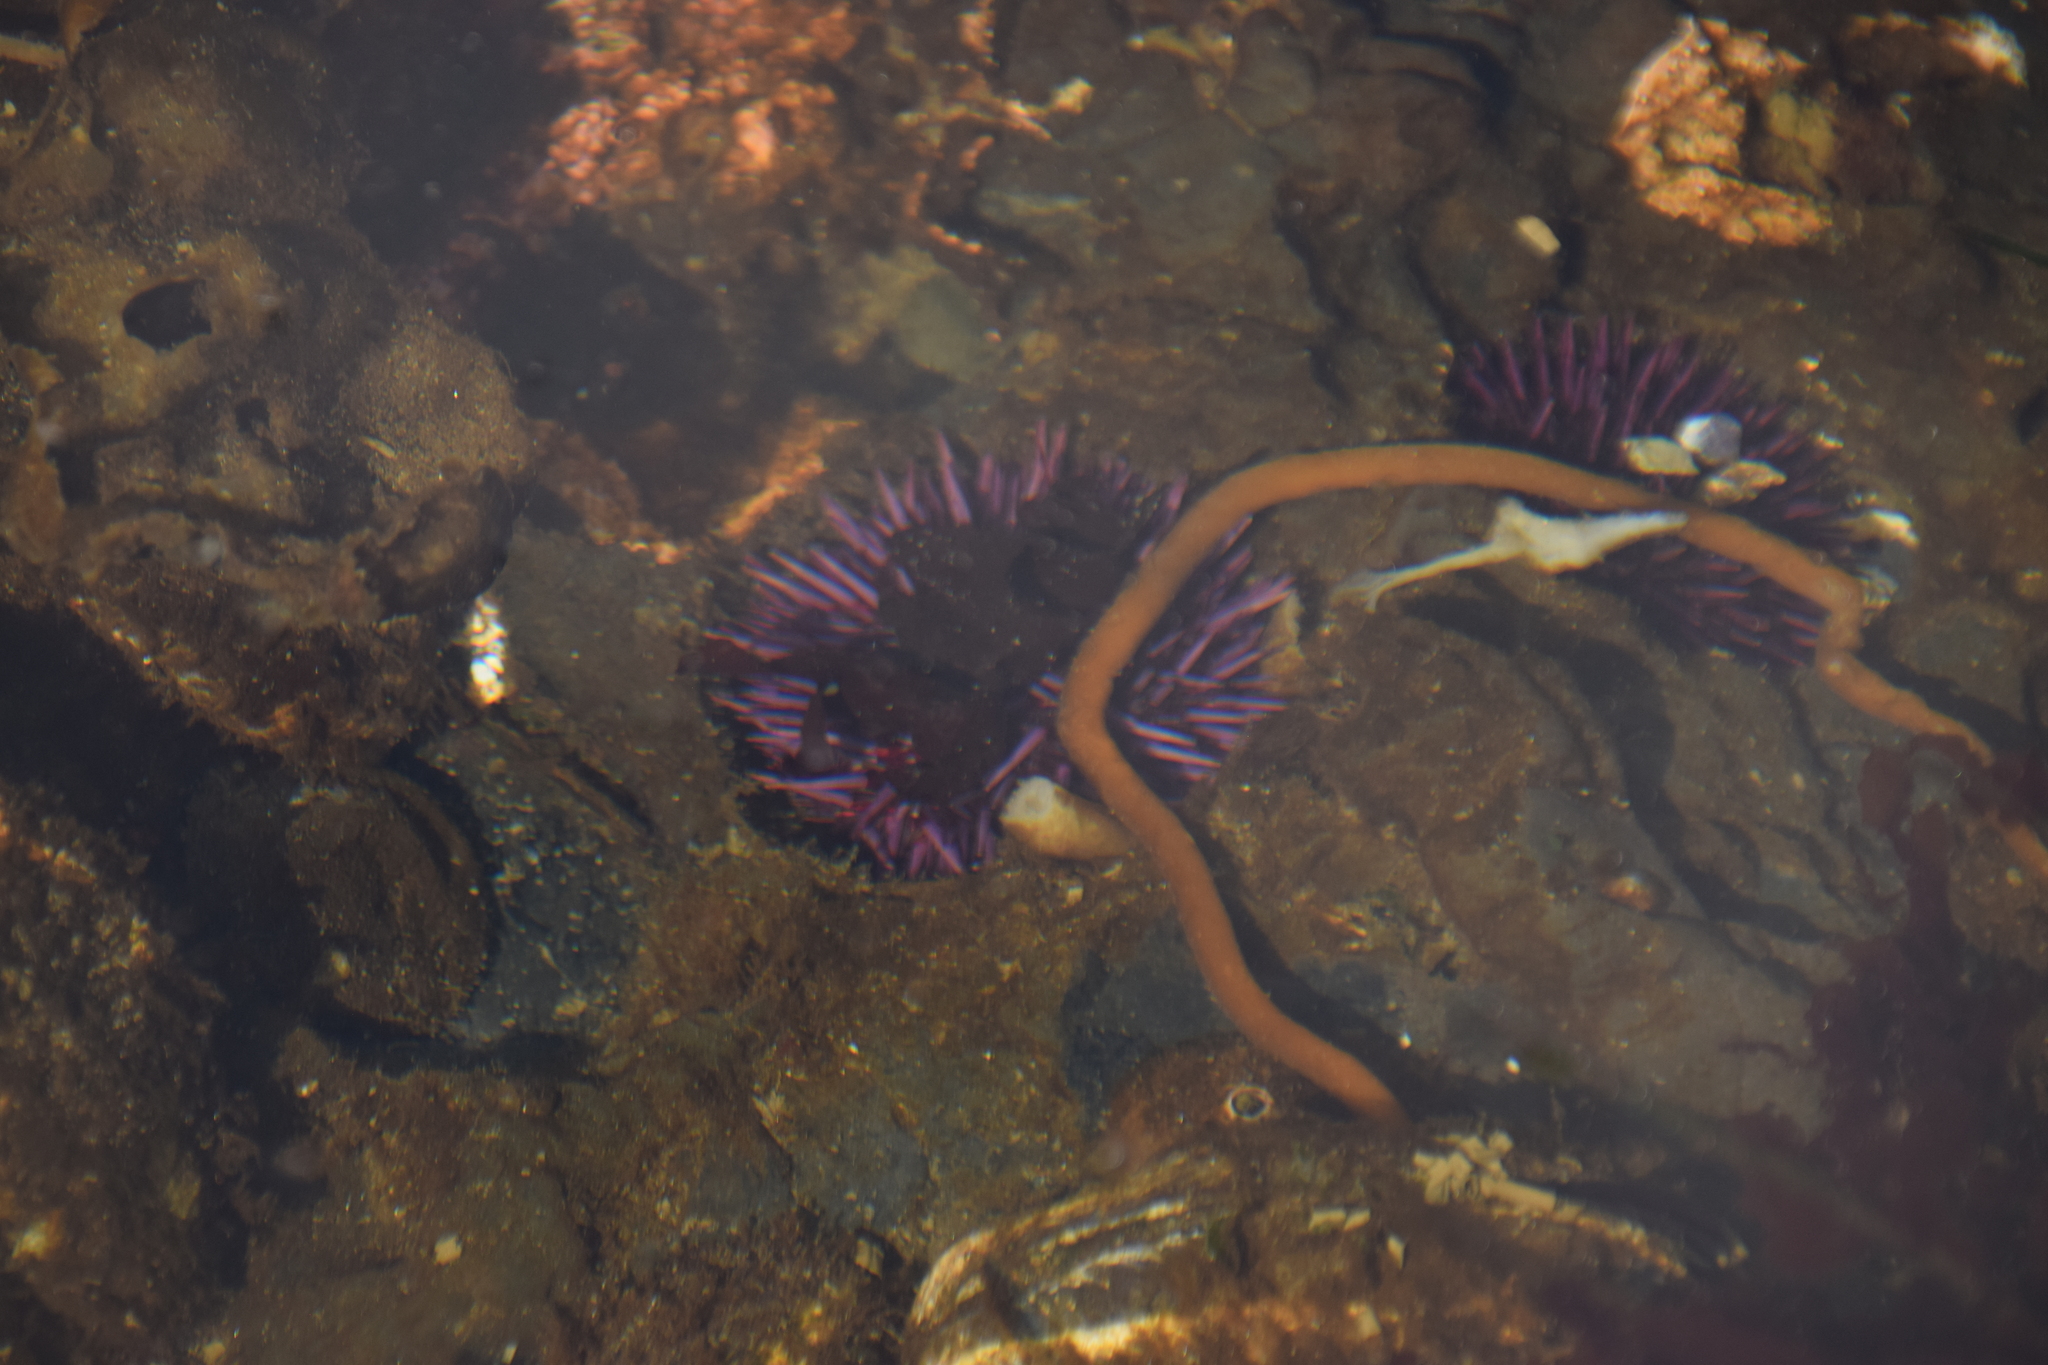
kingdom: Animalia
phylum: Echinodermata
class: Echinoidea
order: Camarodonta
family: Strongylocentrotidae
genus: Strongylocentrotus
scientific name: Strongylocentrotus purpuratus
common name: Purple sea urchin
